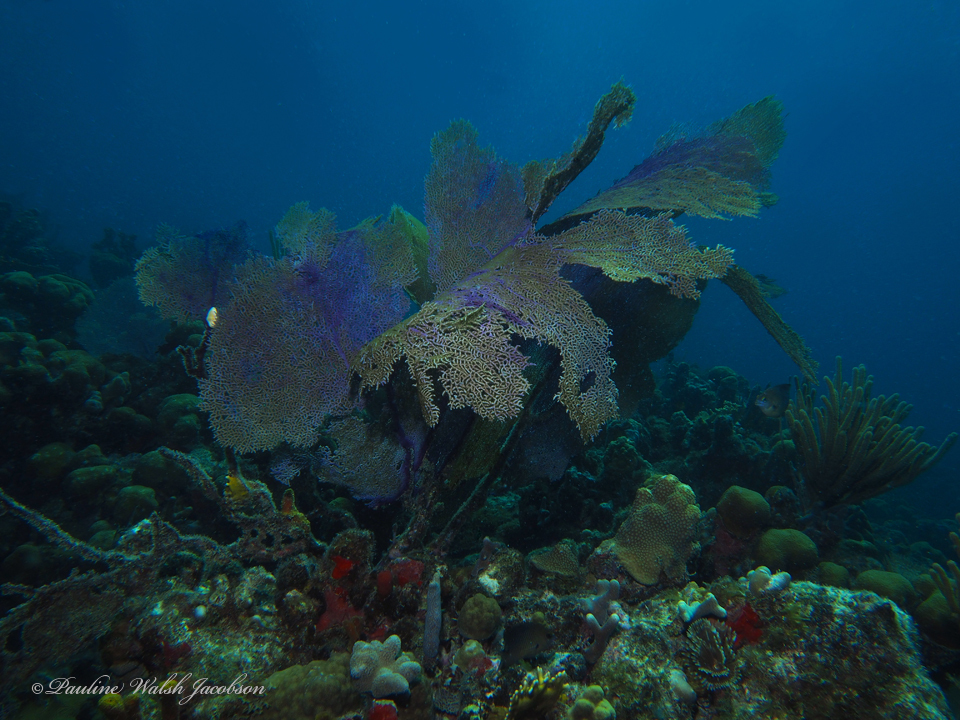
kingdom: Animalia
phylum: Cnidaria
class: Anthozoa
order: Malacalcyonacea
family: Gorgoniidae
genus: Gorgonia
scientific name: Gorgonia ventalina
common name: Common sea fan
